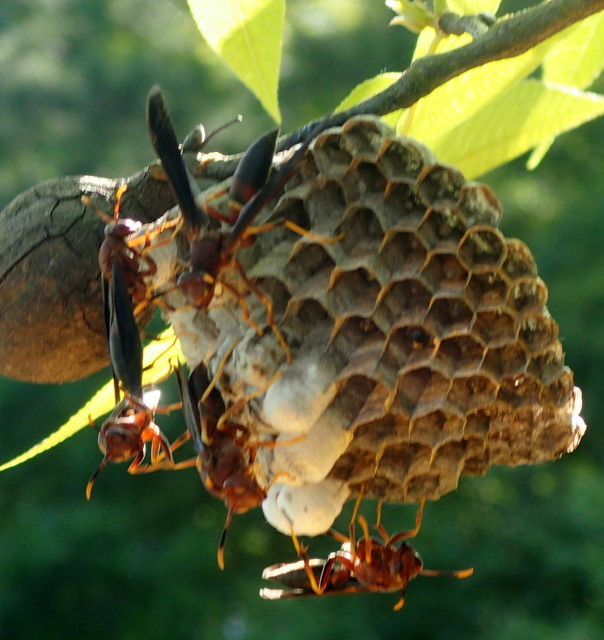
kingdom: Animalia
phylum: Arthropoda
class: Insecta
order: Hymenoptera
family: Eumenidae
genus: Polistes
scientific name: Polistes annularis
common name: Ringed paper wasp
